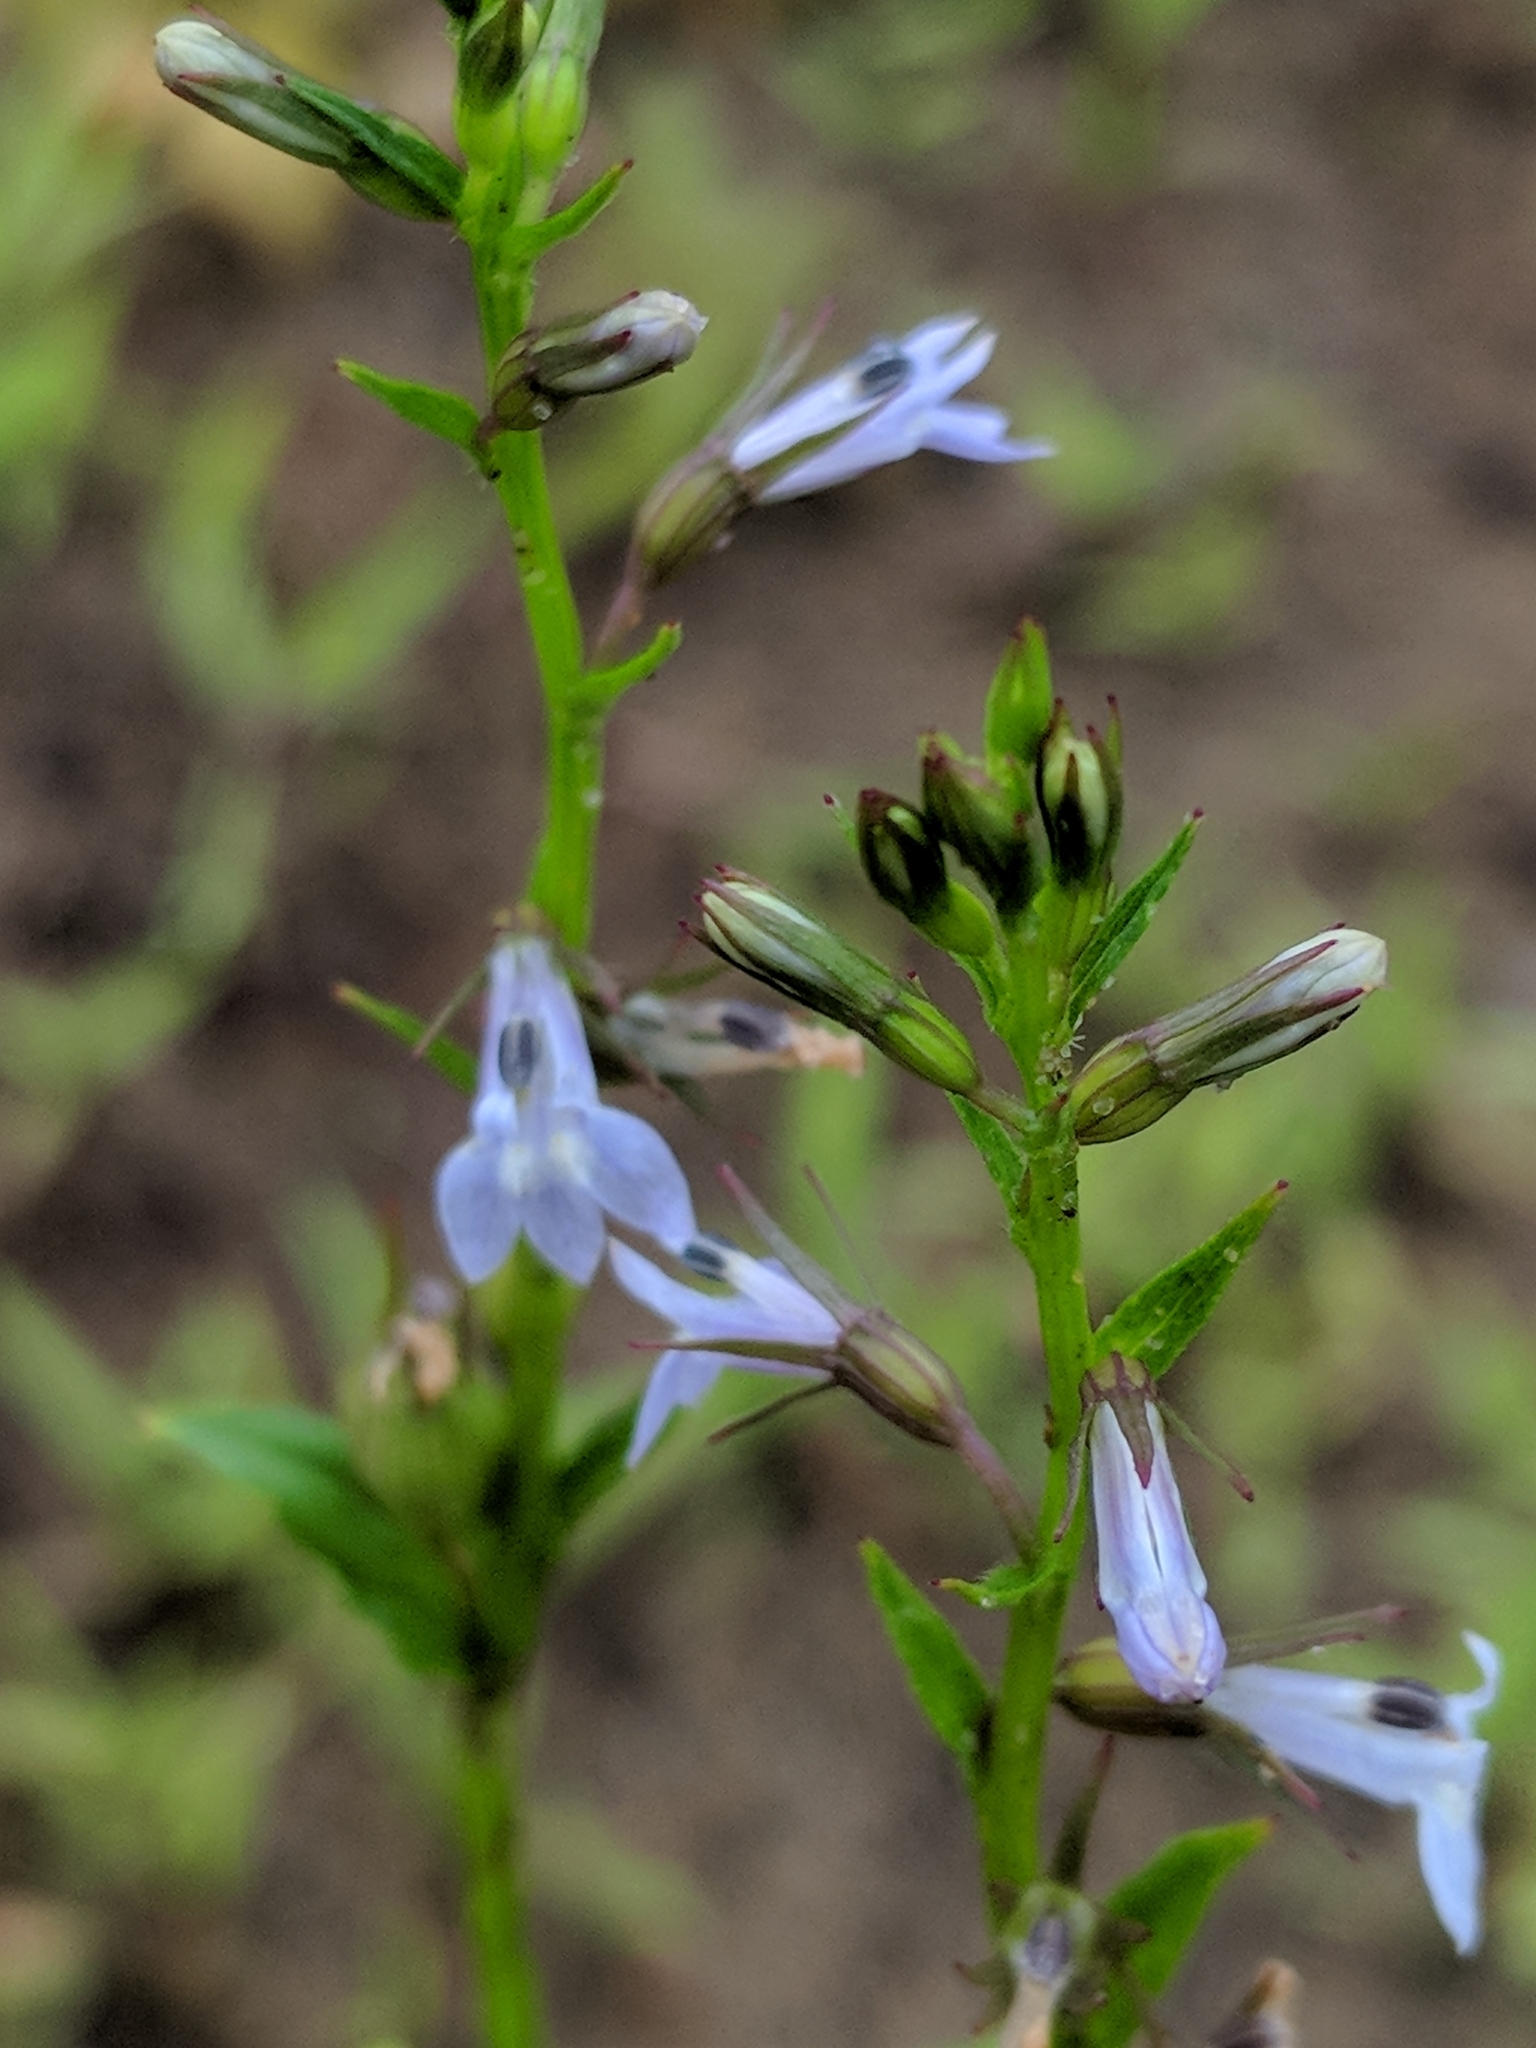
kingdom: Plantae
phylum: Tracheophyta
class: Magnoliopsida
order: Asterales
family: Campanulaceae
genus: Lobelia
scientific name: Lobelia inflata
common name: Indian tobacco
